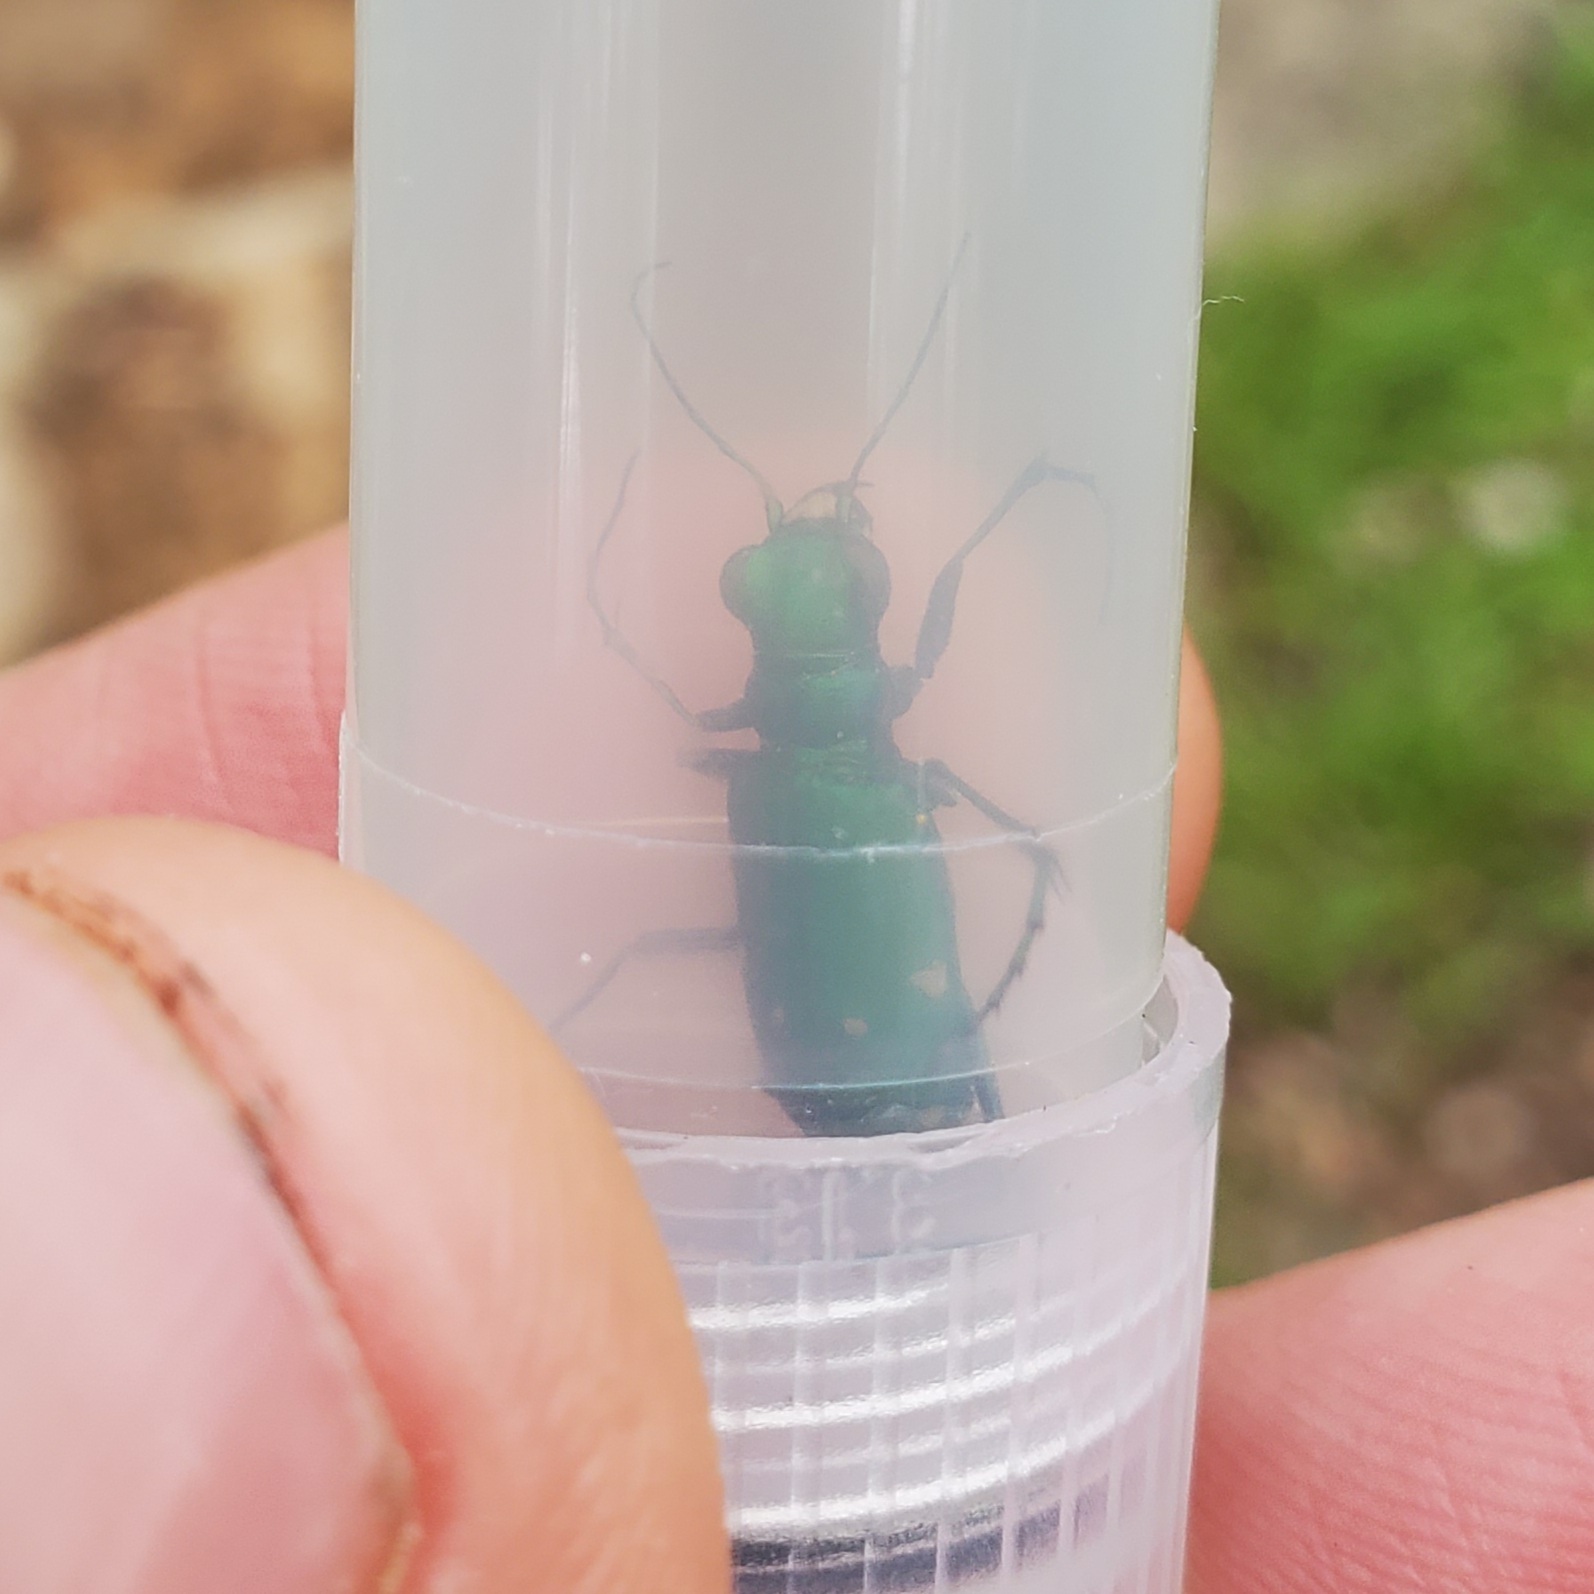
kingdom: Animalia
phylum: Arthropoda
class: Insecta
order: Coleoptera
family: Carabidae
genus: Cicindela
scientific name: Cicindela sexguttata
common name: Six-spotted tiger beetle
